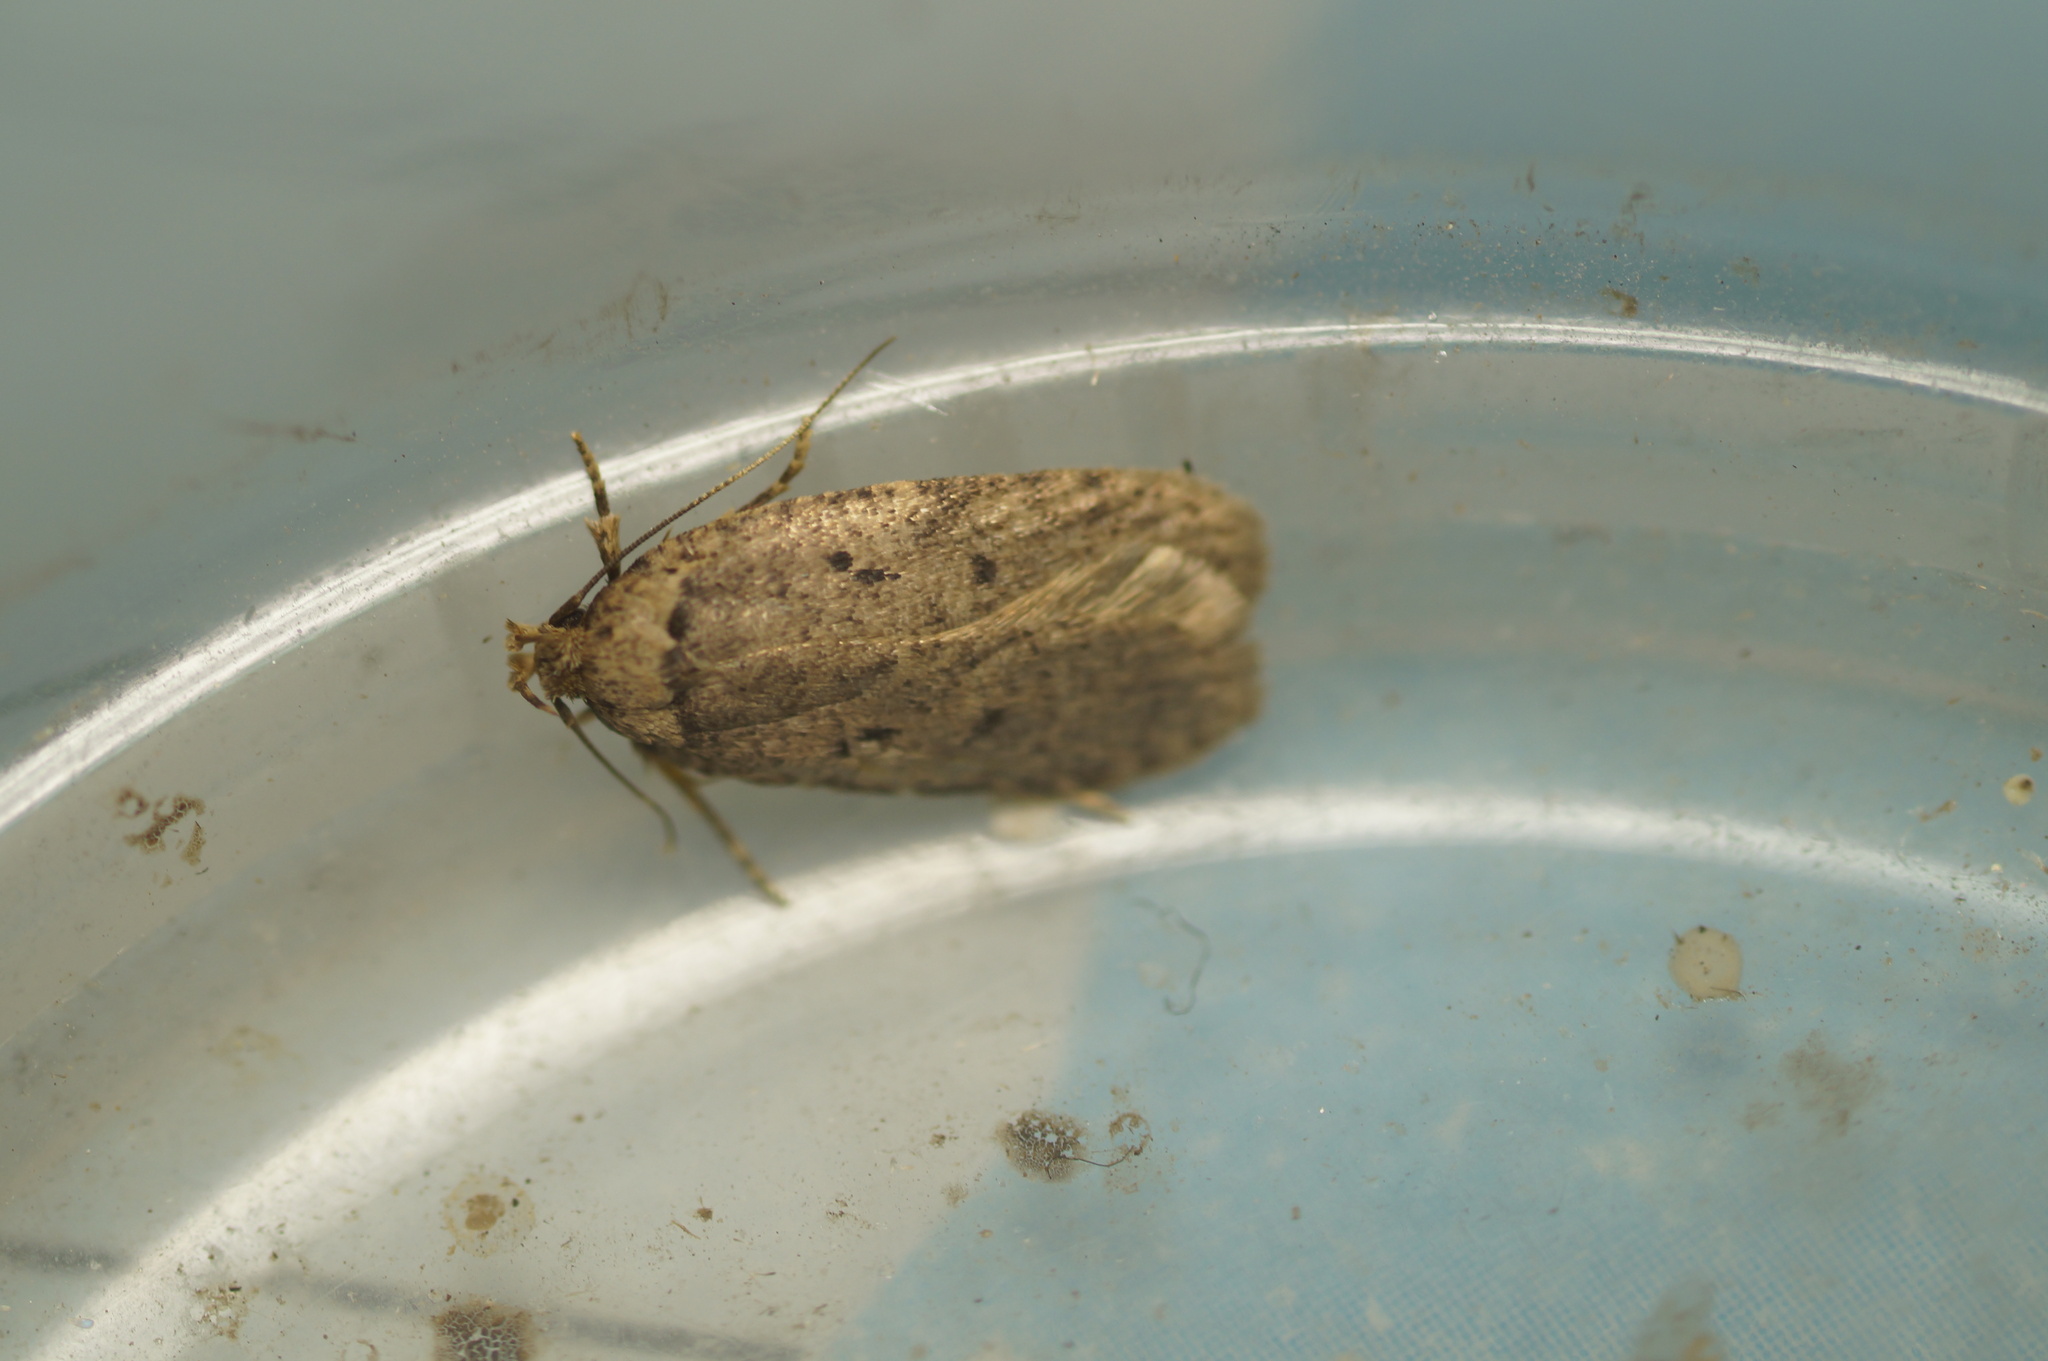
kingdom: Animalia
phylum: Arthropoda
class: Insecta
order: Lepidoptera
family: Depressariidae
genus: Agonopterix
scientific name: Agonopterix curvipunctosa
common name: Powdered flat-body
